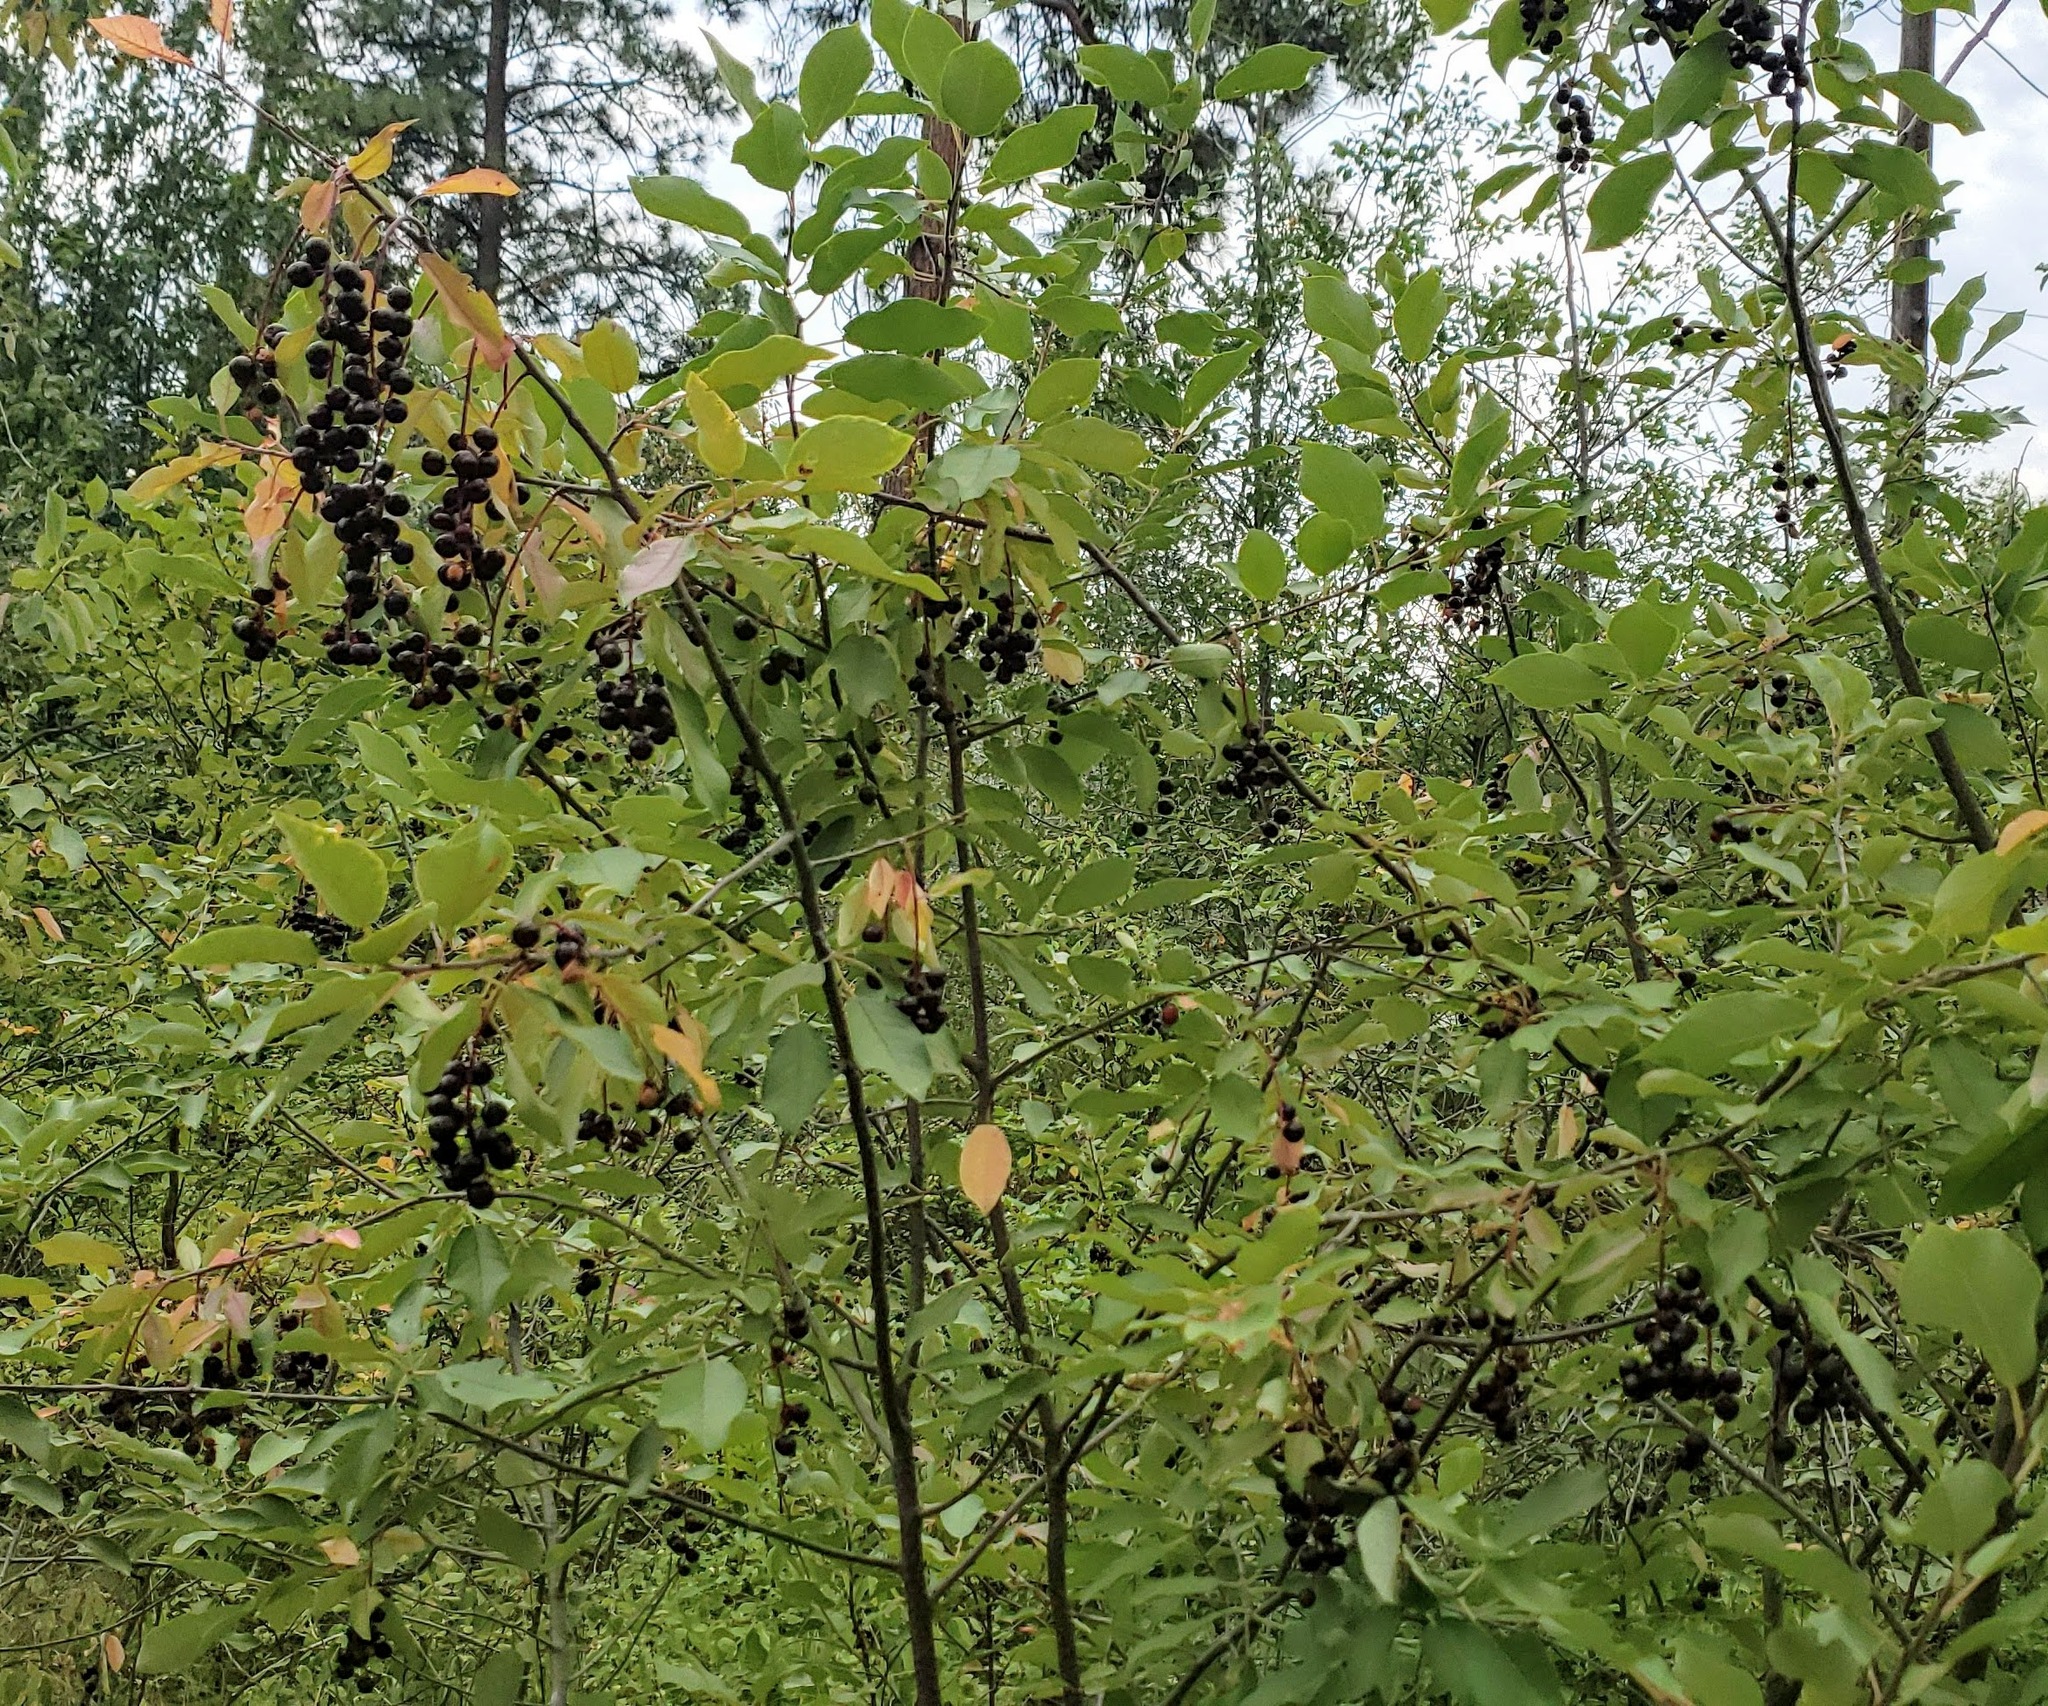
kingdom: Plantae
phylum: Tracheophyta
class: Magnoliopsida
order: Rosales
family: Rosaceae
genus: Prunus
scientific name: Prunus virginiana
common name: Chokecherry
